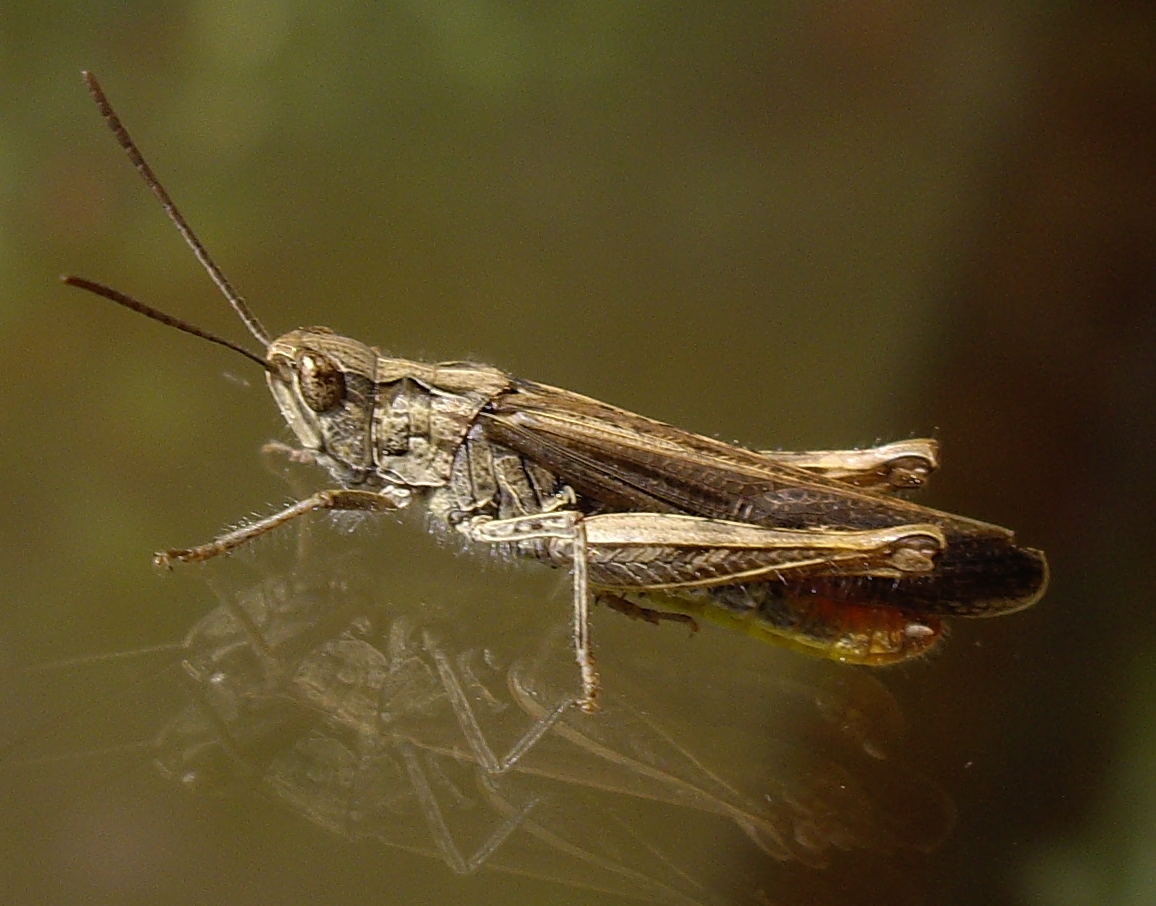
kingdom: Animalia
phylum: Arthropoda
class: Insecta
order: Orthoptera
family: Acrididae
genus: Chorthippus
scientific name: Chorthippus brunneus
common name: Field grasshopper
